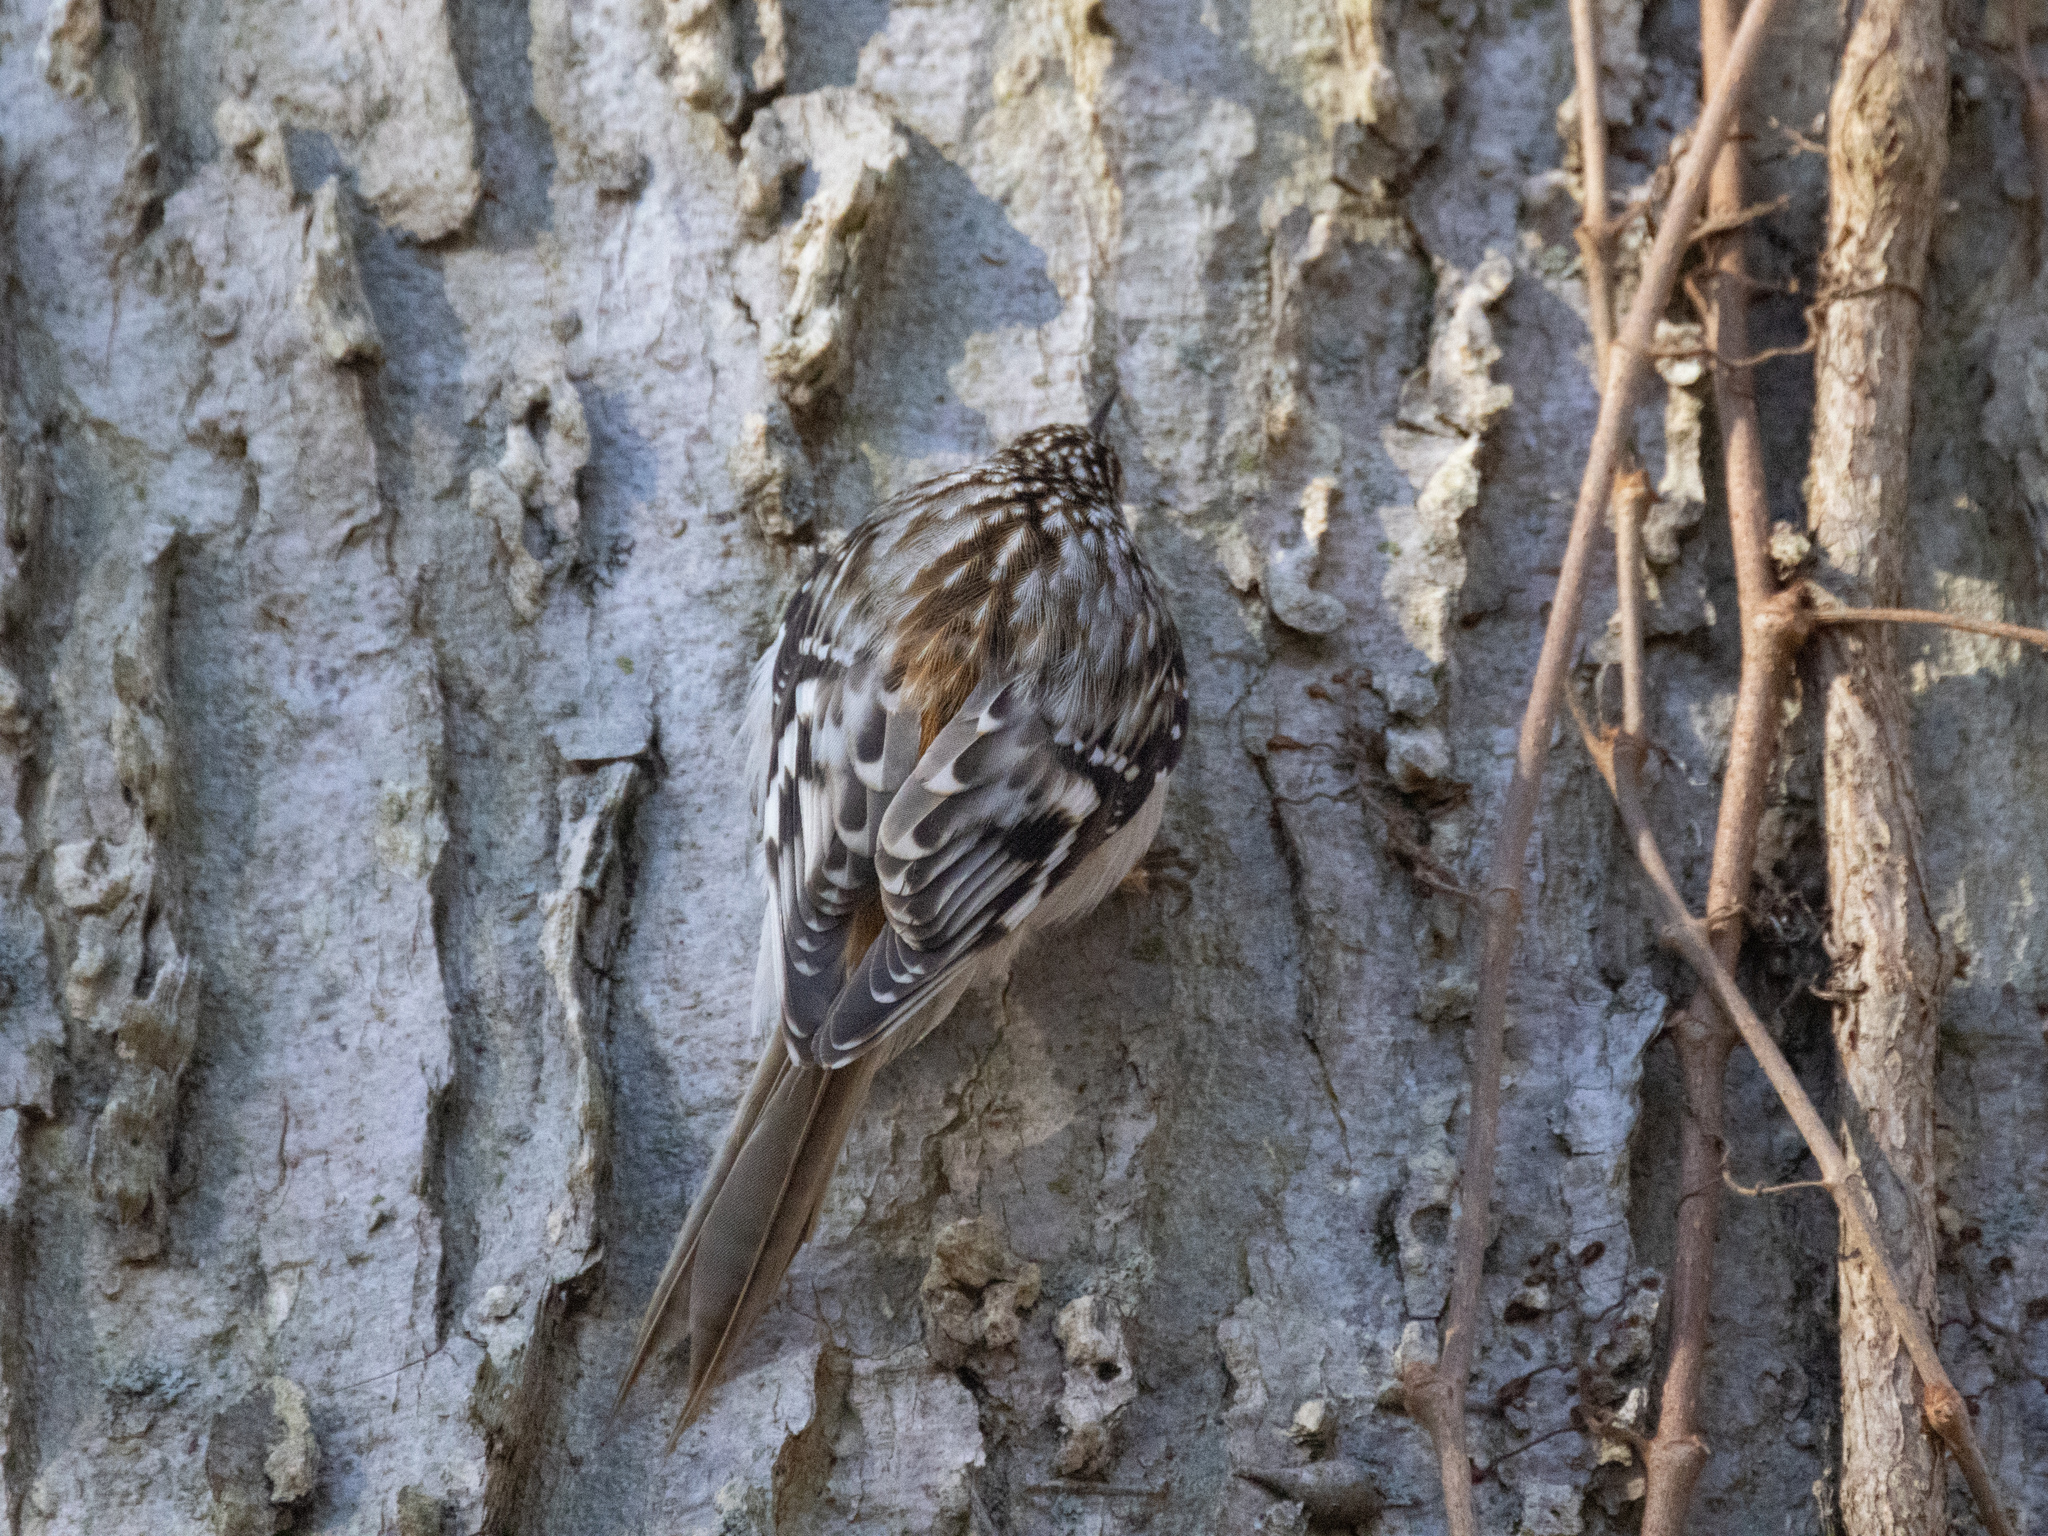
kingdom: Animalia
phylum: Chordata
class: Aves
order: Passeriformes
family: Certhiidae
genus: Certhia
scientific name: Certhia americana
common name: Brown creeper
